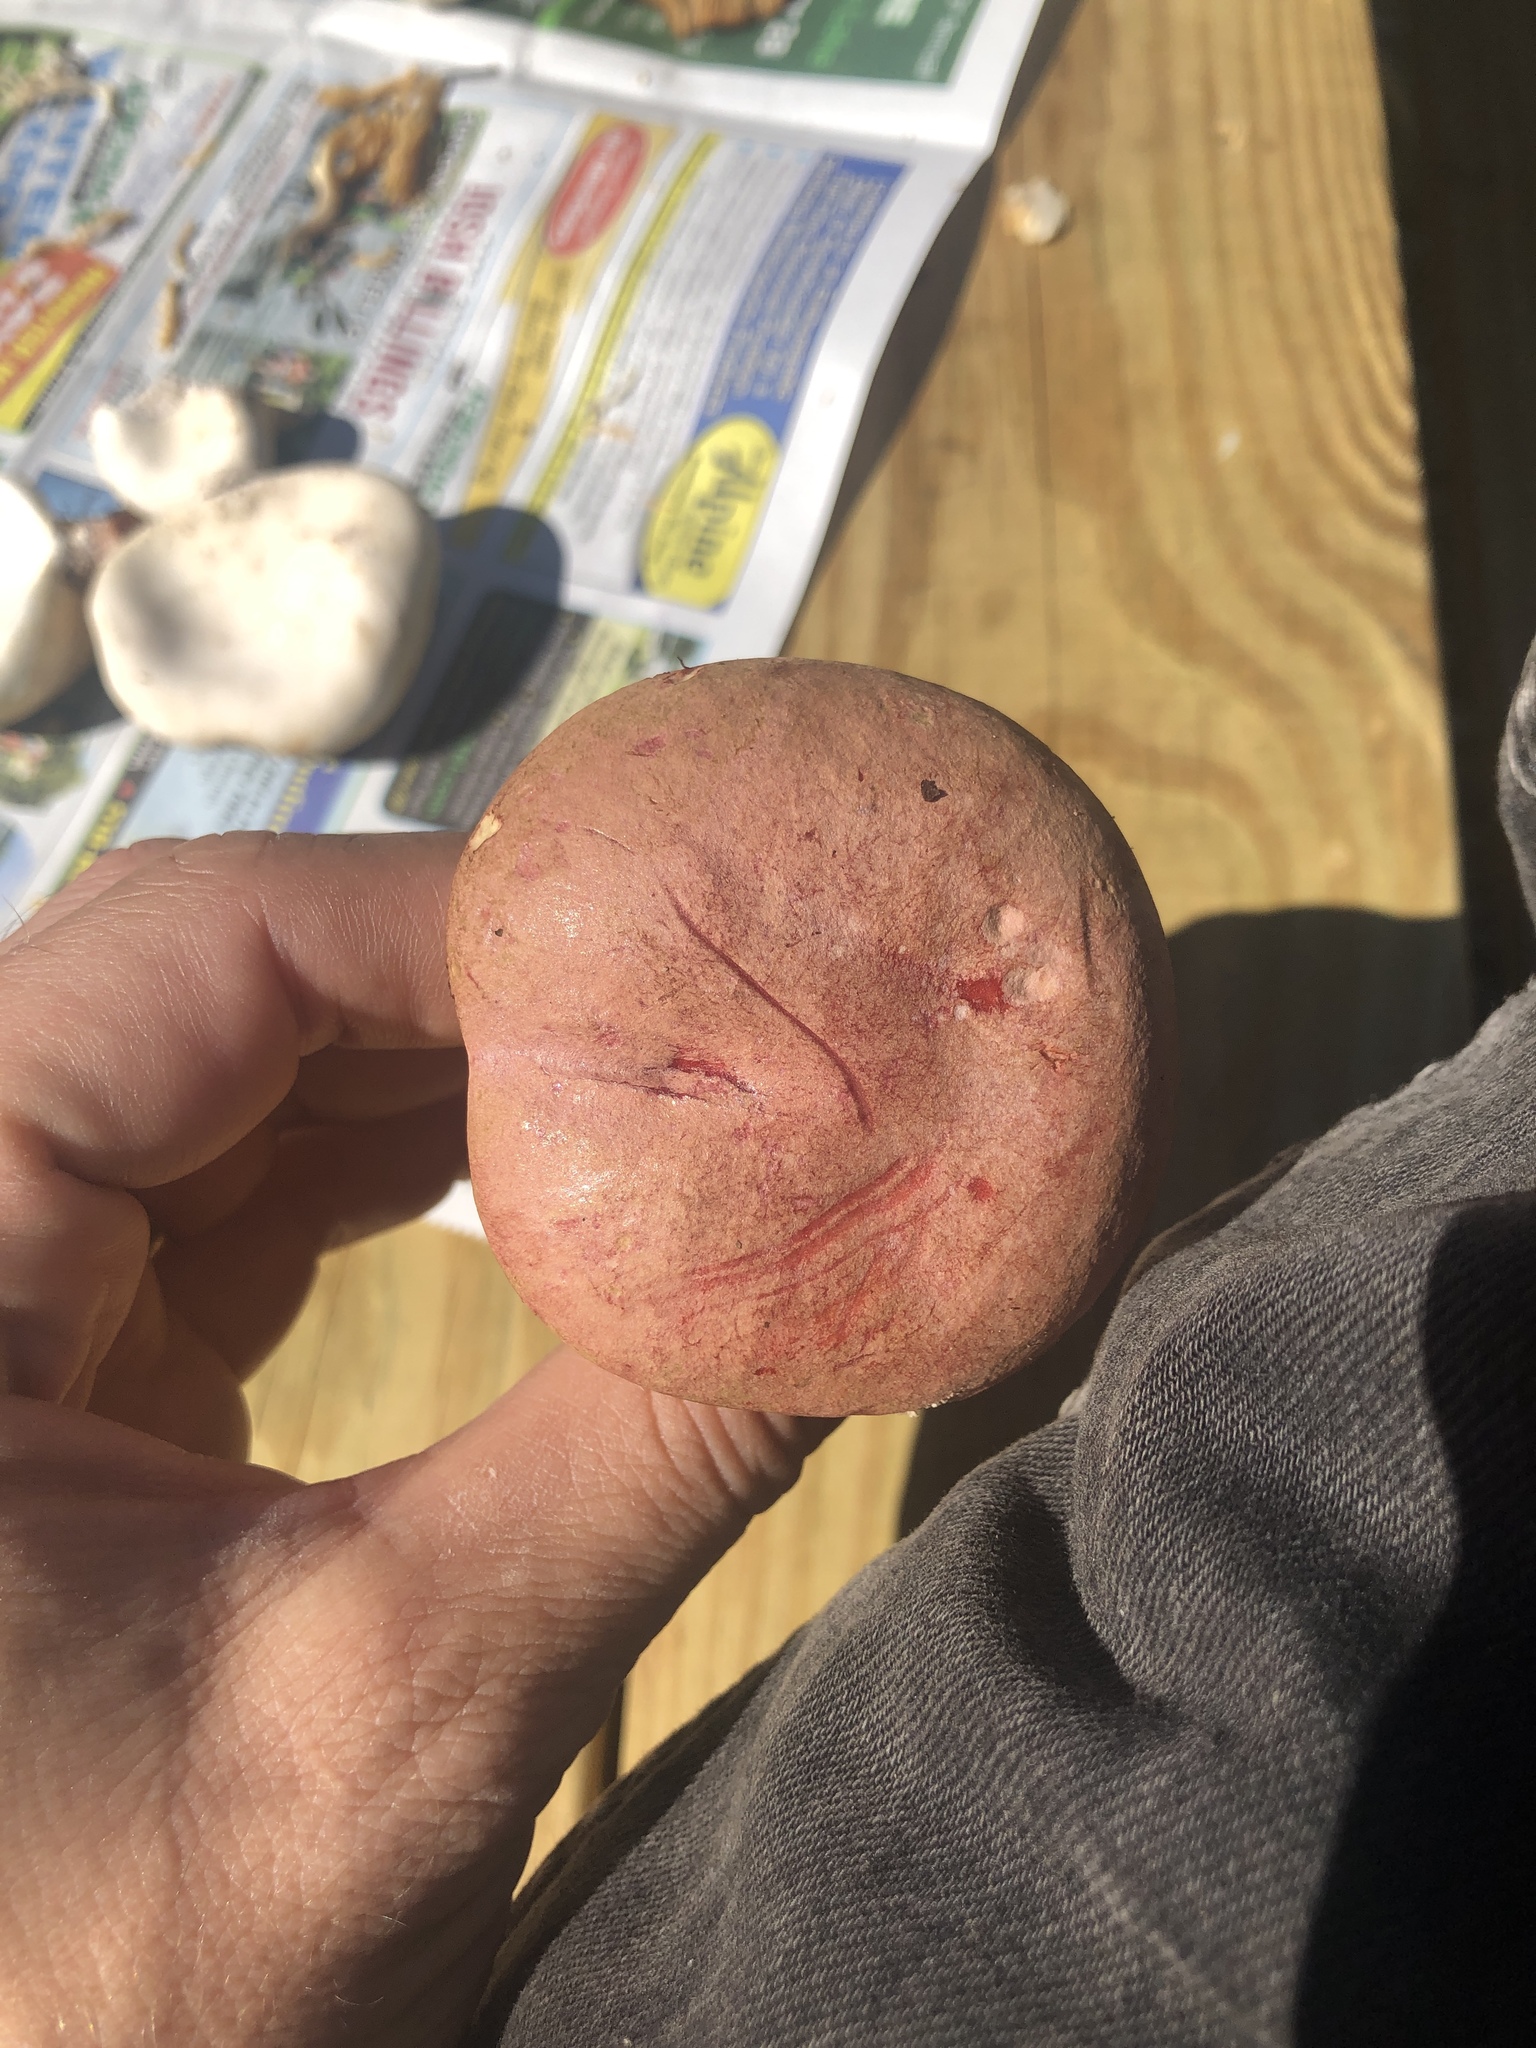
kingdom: Fungi
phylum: Basidiomycota
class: Agaricomycetes
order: Boletales
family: Boletaceae
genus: Harrya
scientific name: Harrya chromipes
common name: Chrome-footed bolete
